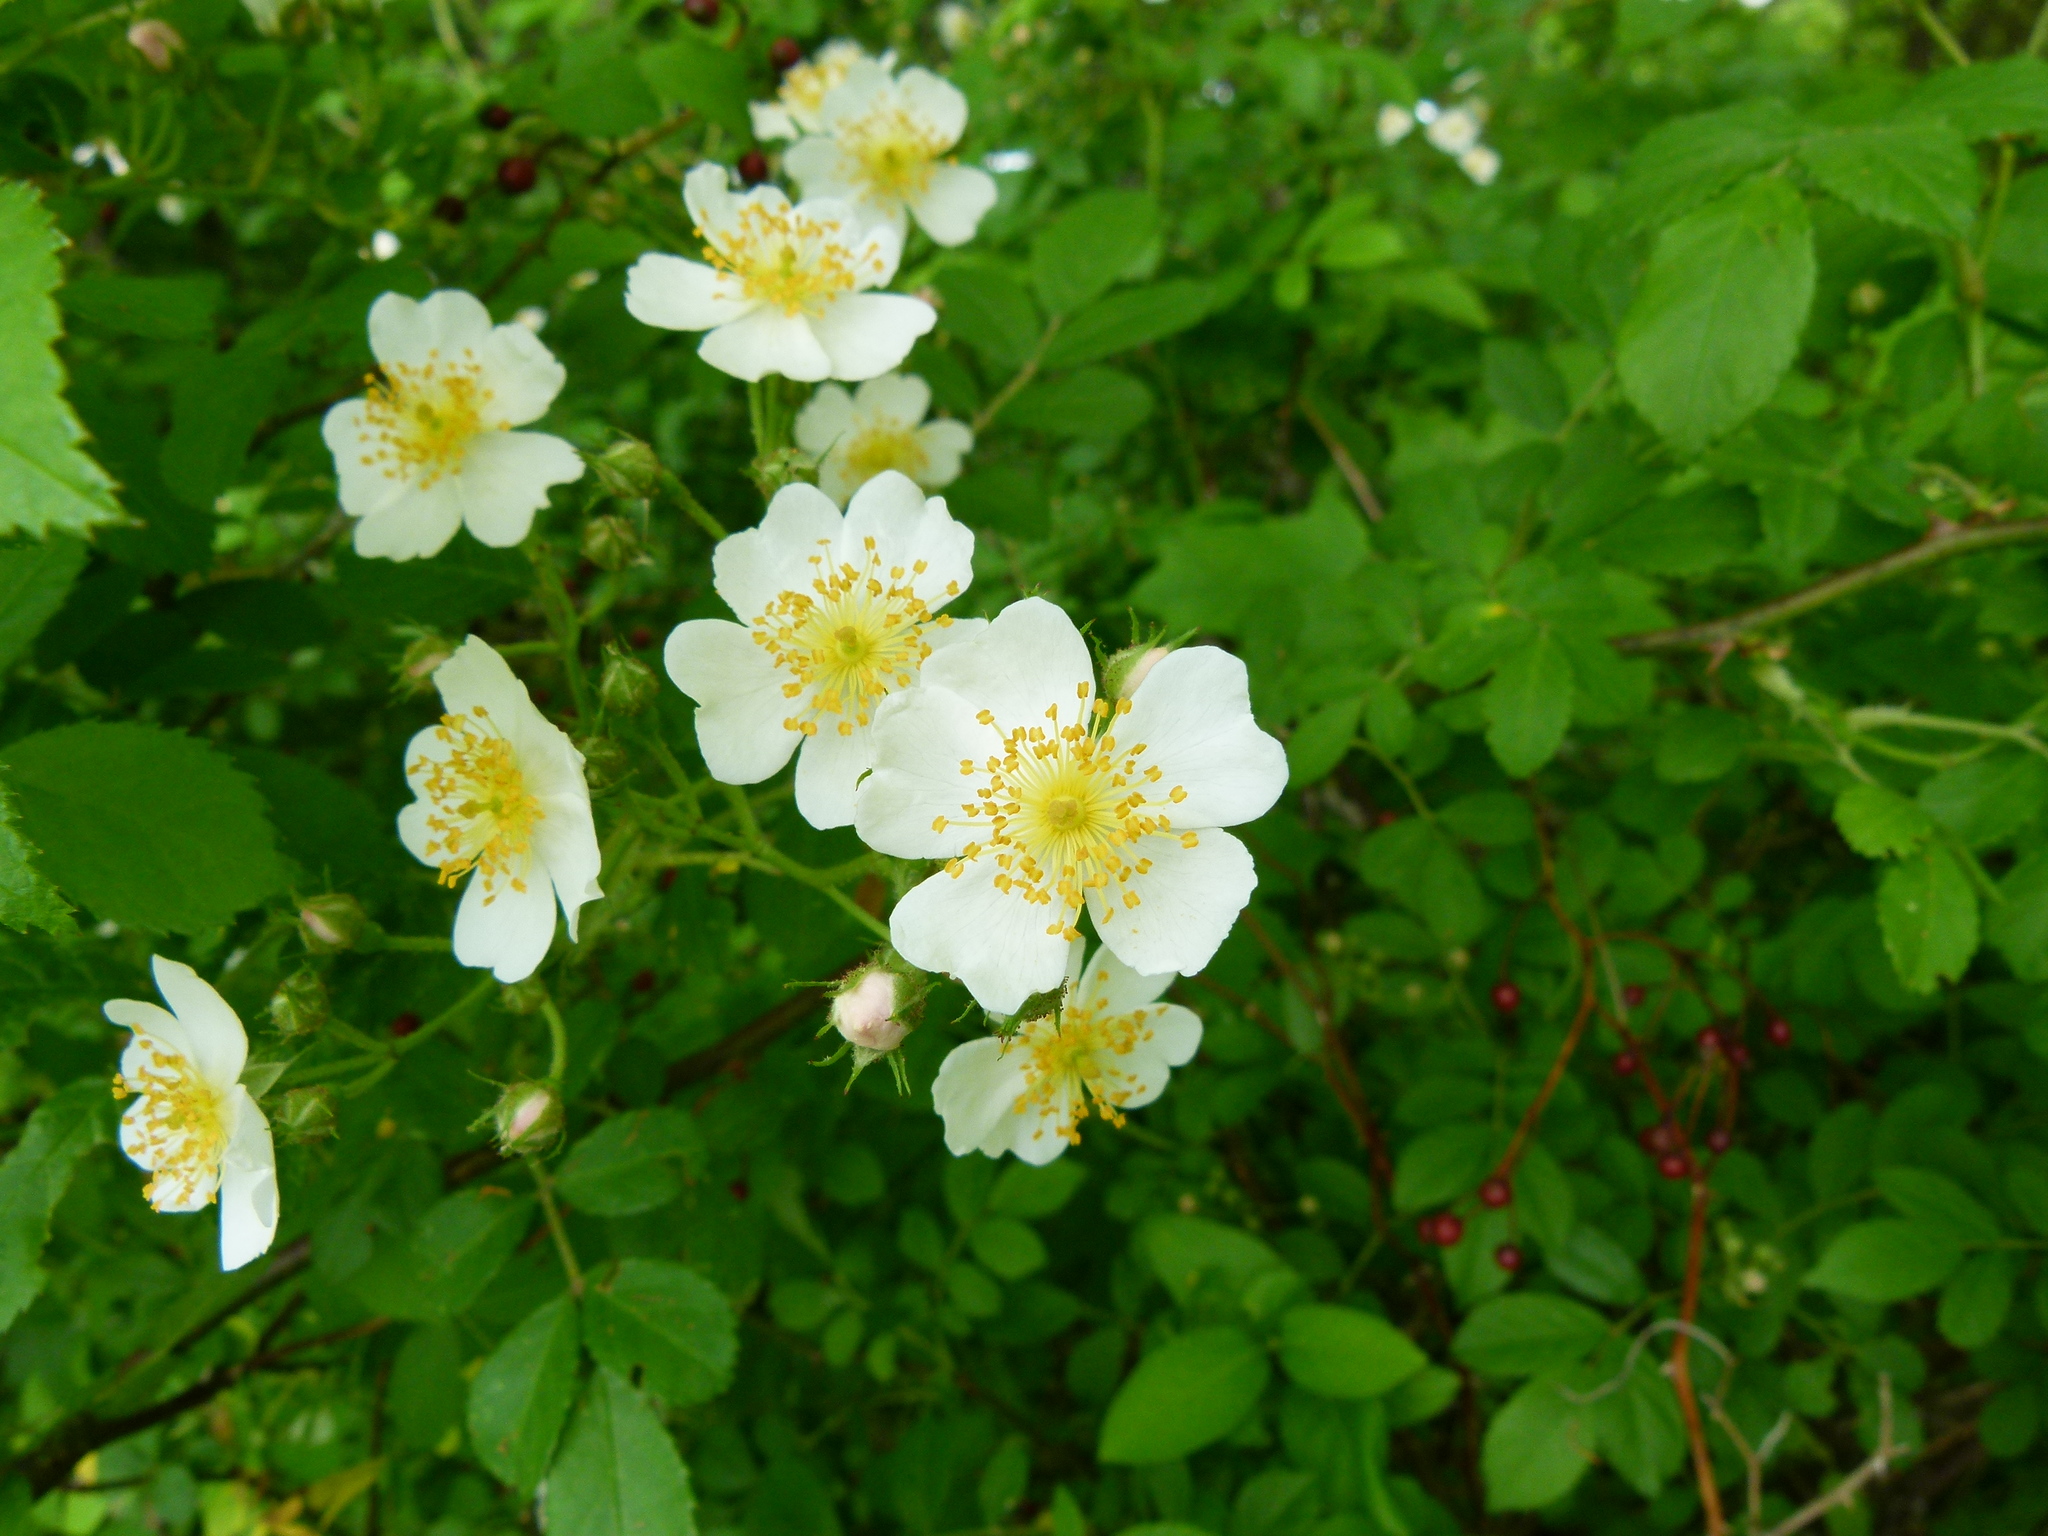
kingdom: Plantae
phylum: Tracheophyta
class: Magnoliopsida
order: Rosales
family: Rosaceae
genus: Rosa
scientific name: Rosa multiflora
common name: Multiflora rose
